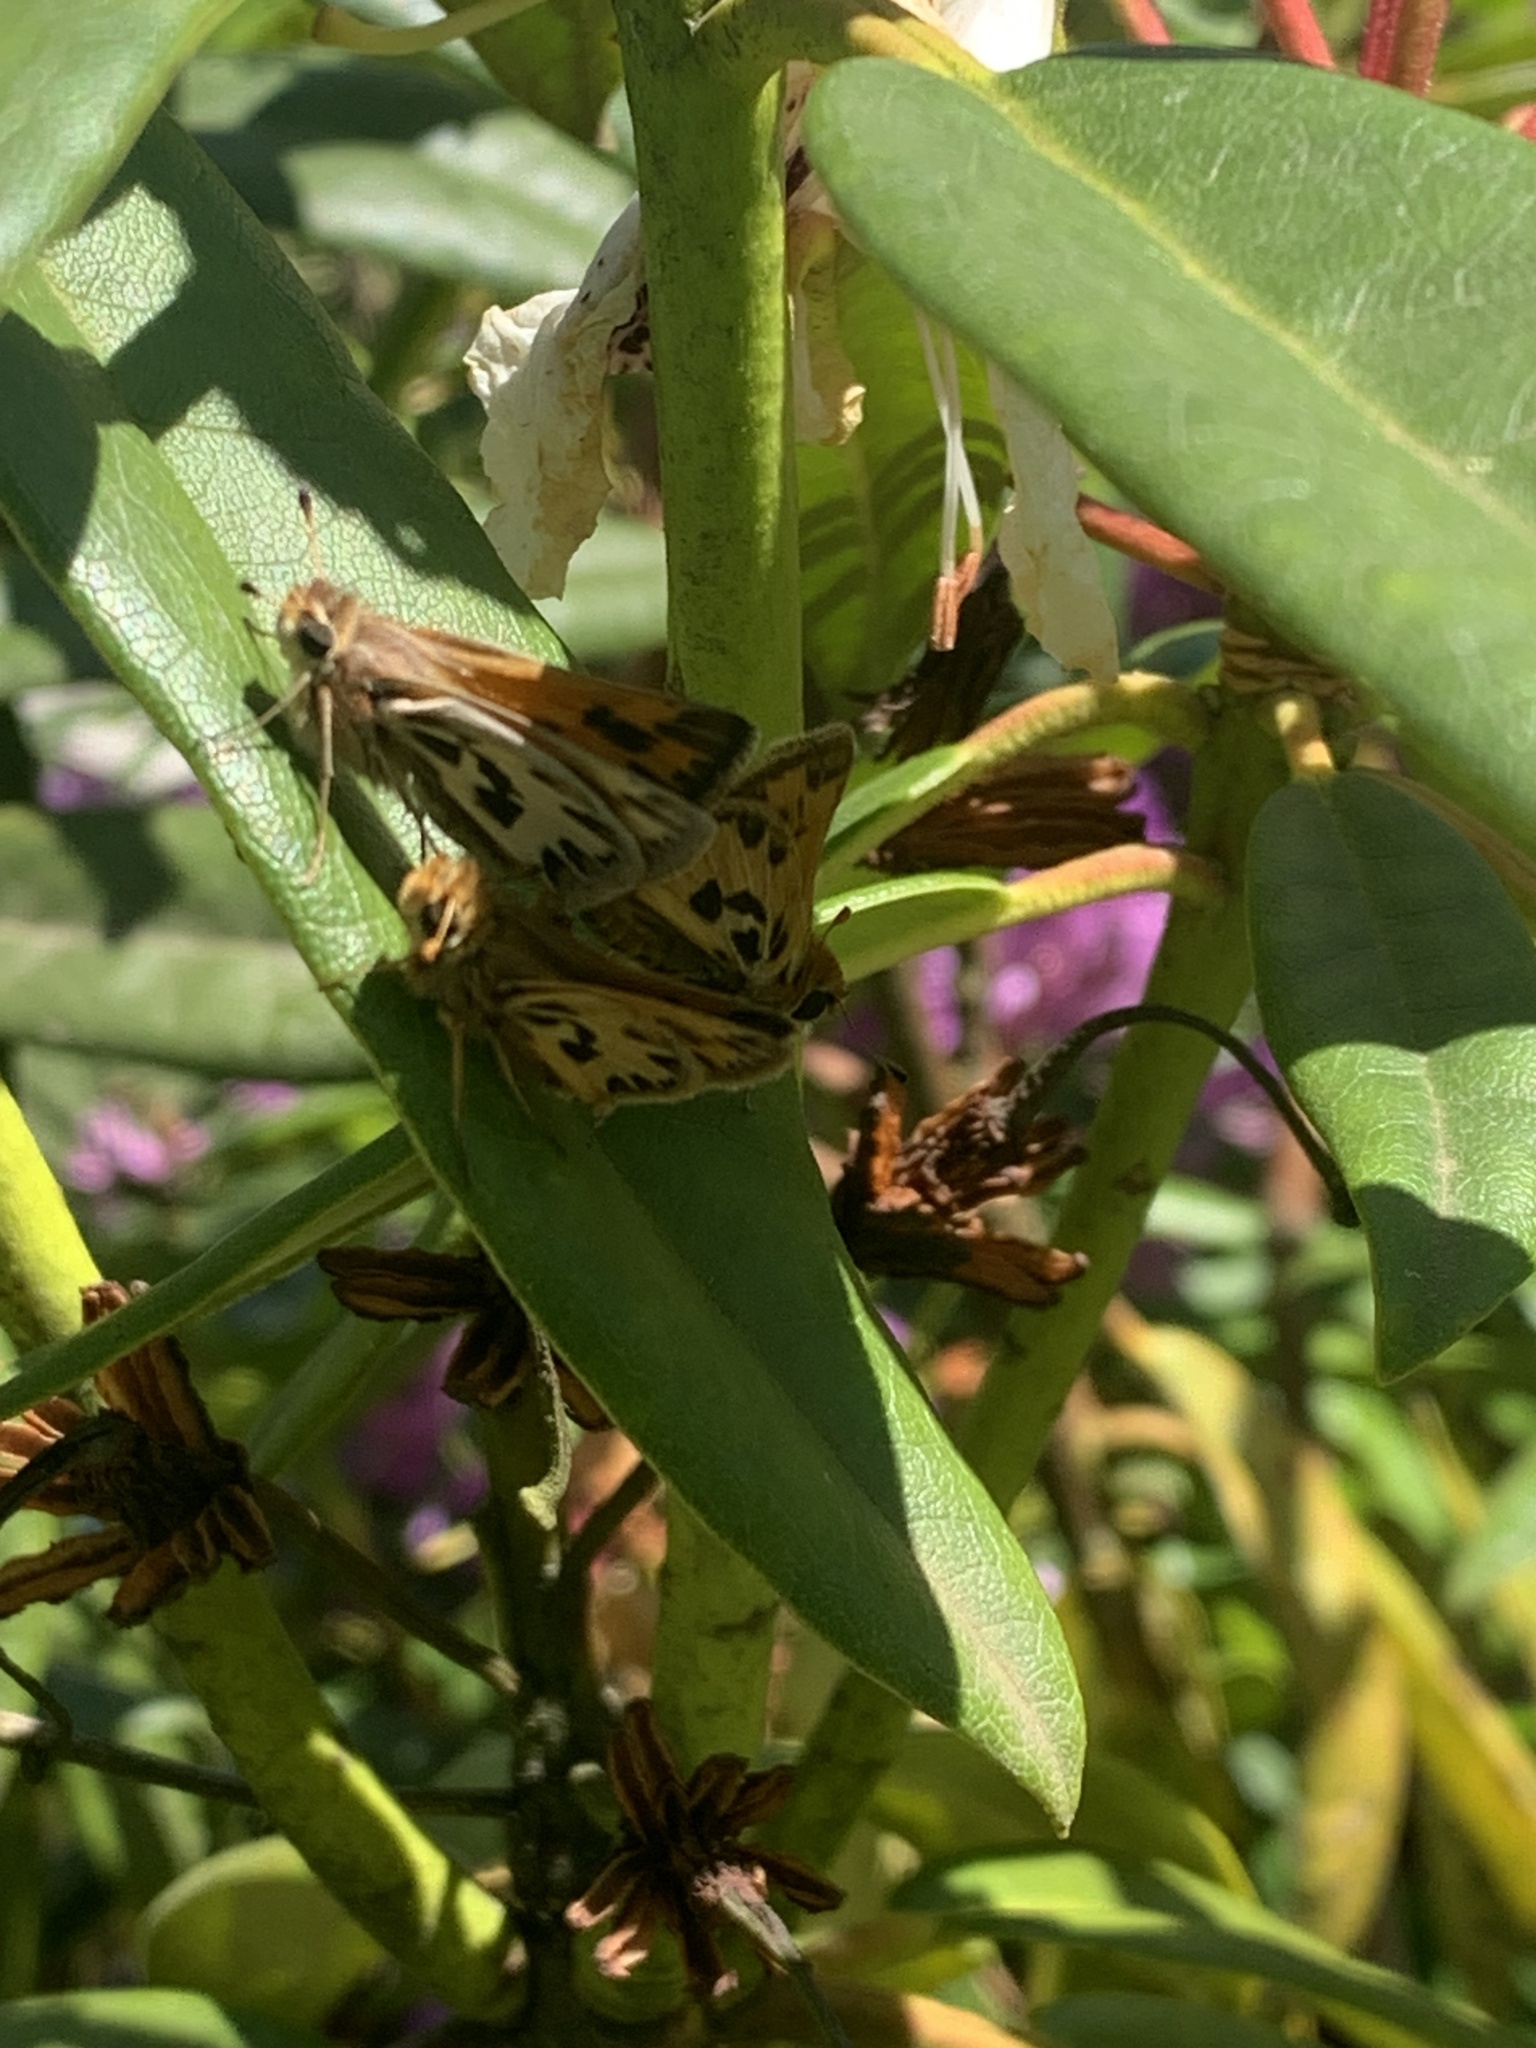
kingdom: Animalia
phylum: Arthropoda
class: Insecta
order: Lepidoptera
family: Hesperiidae
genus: Hylephila
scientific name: Hylephila fasciolata
